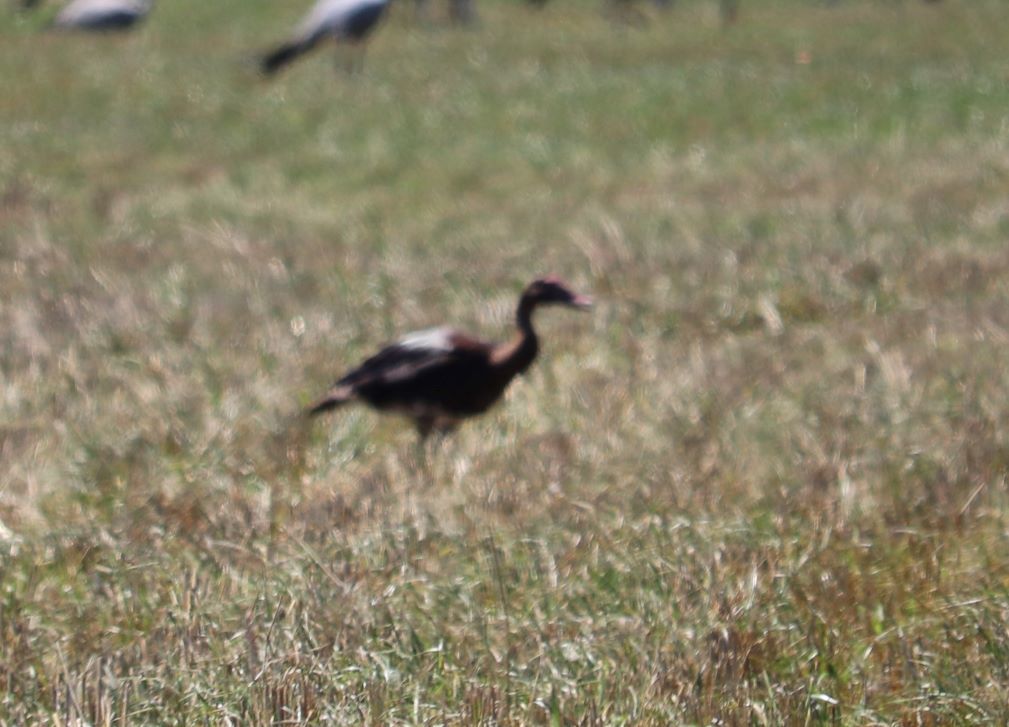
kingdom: Animalia
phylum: Chordata
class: Aves
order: Anseriformes
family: Anatidae
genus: Plectropterus
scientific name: Plectropterus gambensis
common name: Spur-winged goose
